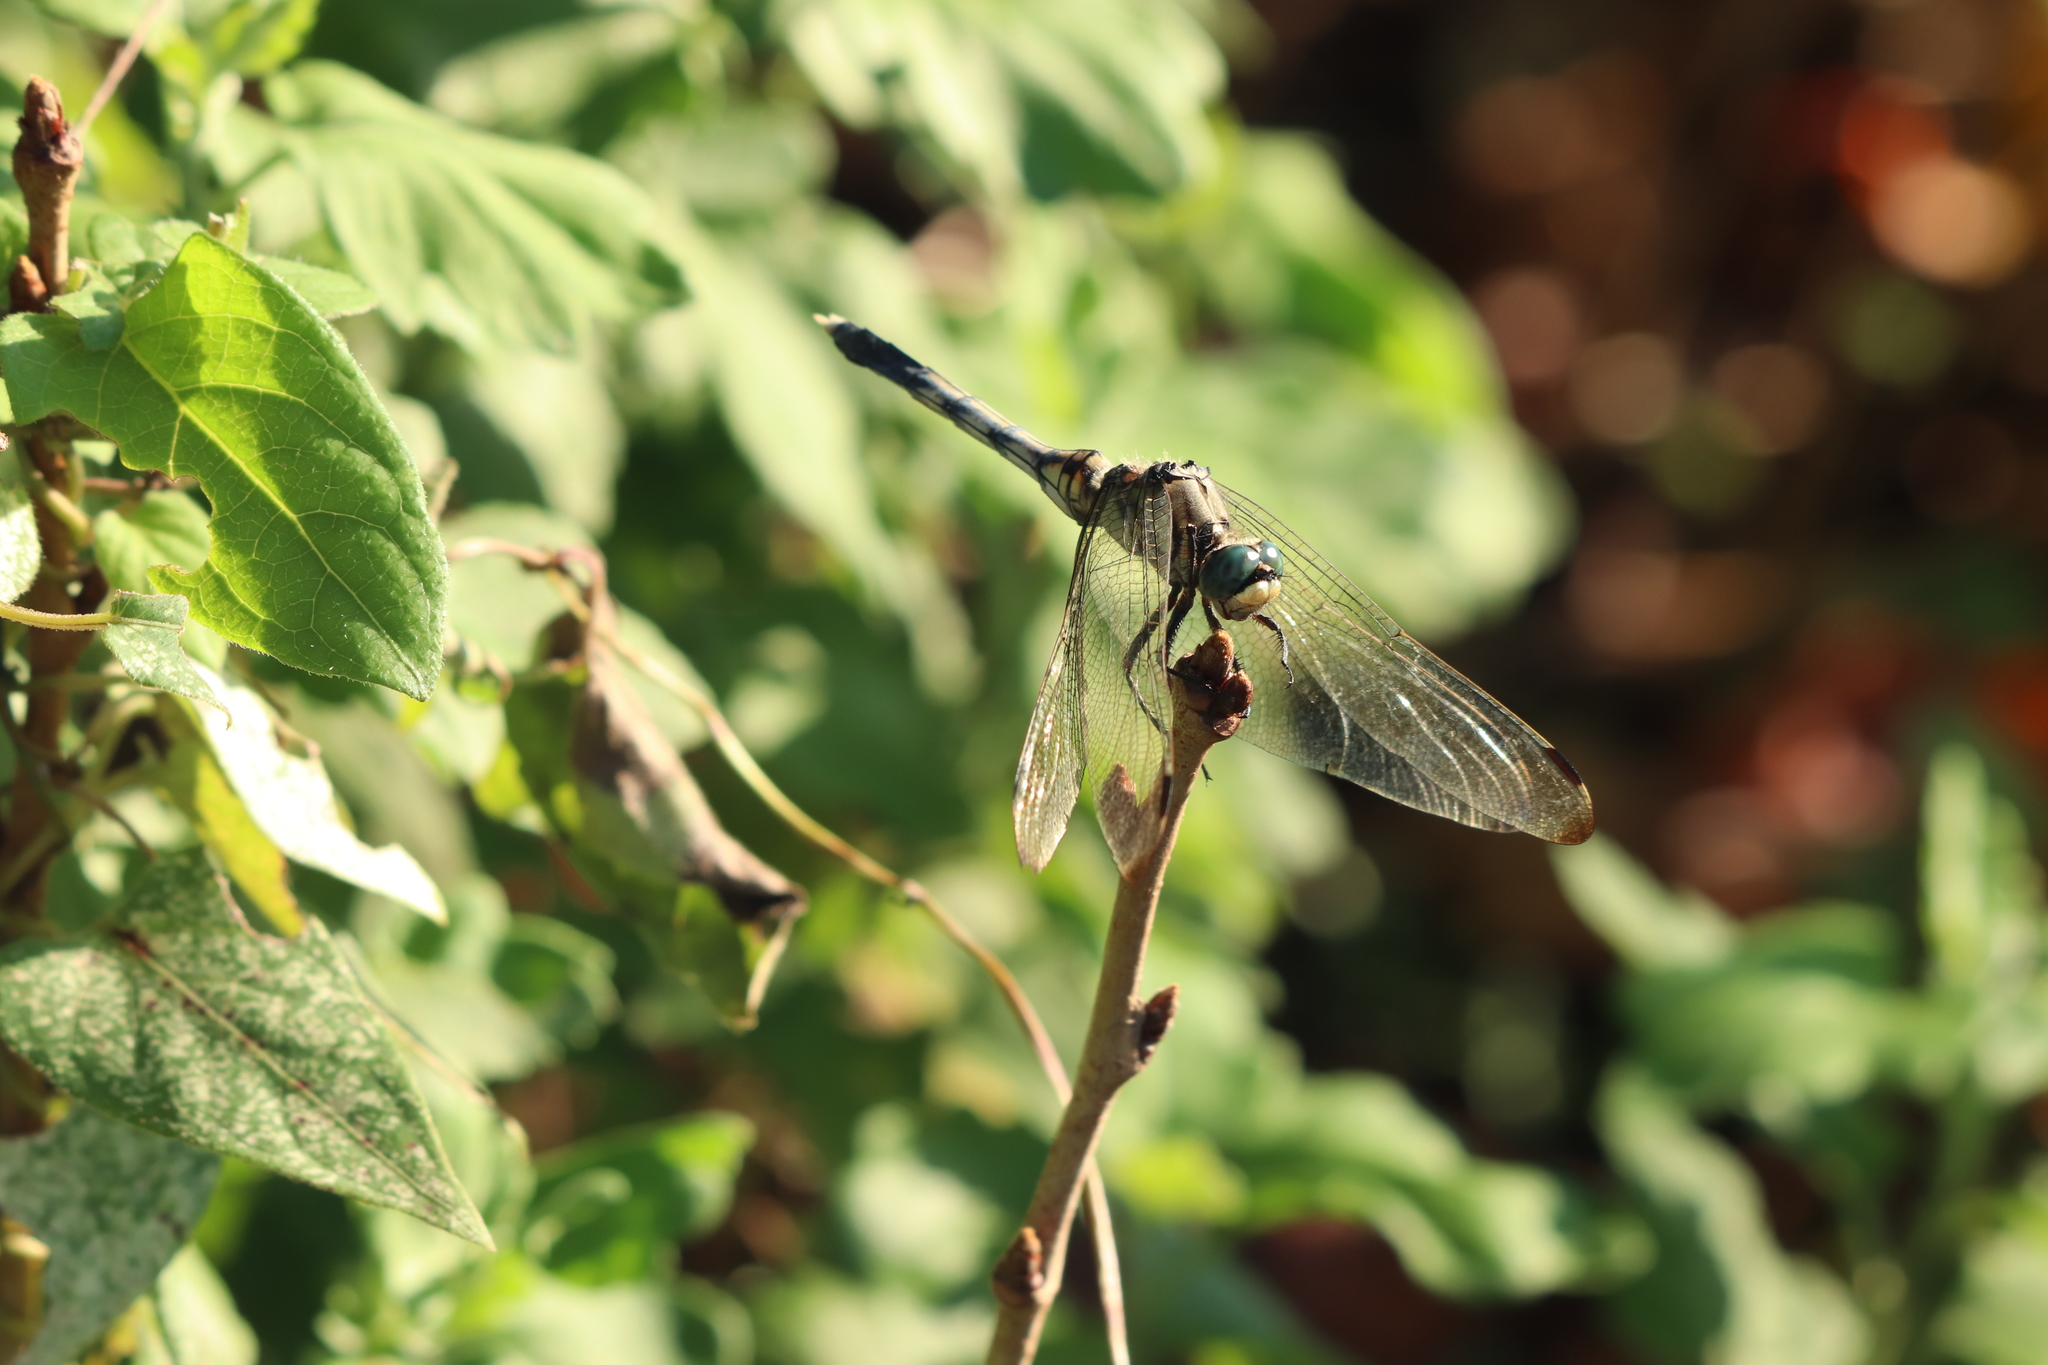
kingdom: Animalia
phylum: Arthropoda
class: Insecta
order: Odonata
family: Libellulidae
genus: Orthetrum
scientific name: Orthetrum albistylum
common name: White-tailed skimmer
